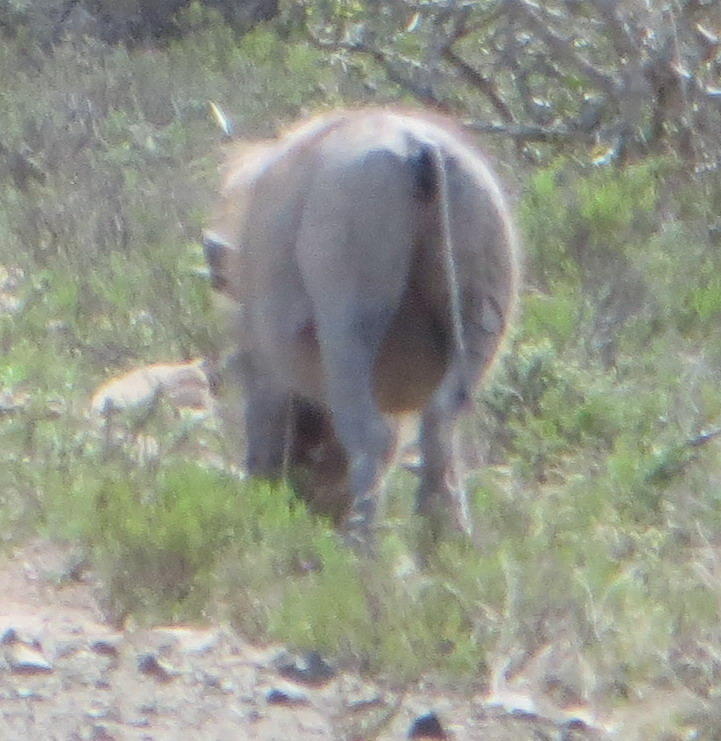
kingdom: Animalia
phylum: Chordata
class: Mammalia
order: Artiodactyla
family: Suidae
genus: Phacochoerus
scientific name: Phacochoerus africanus
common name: Common warthog
